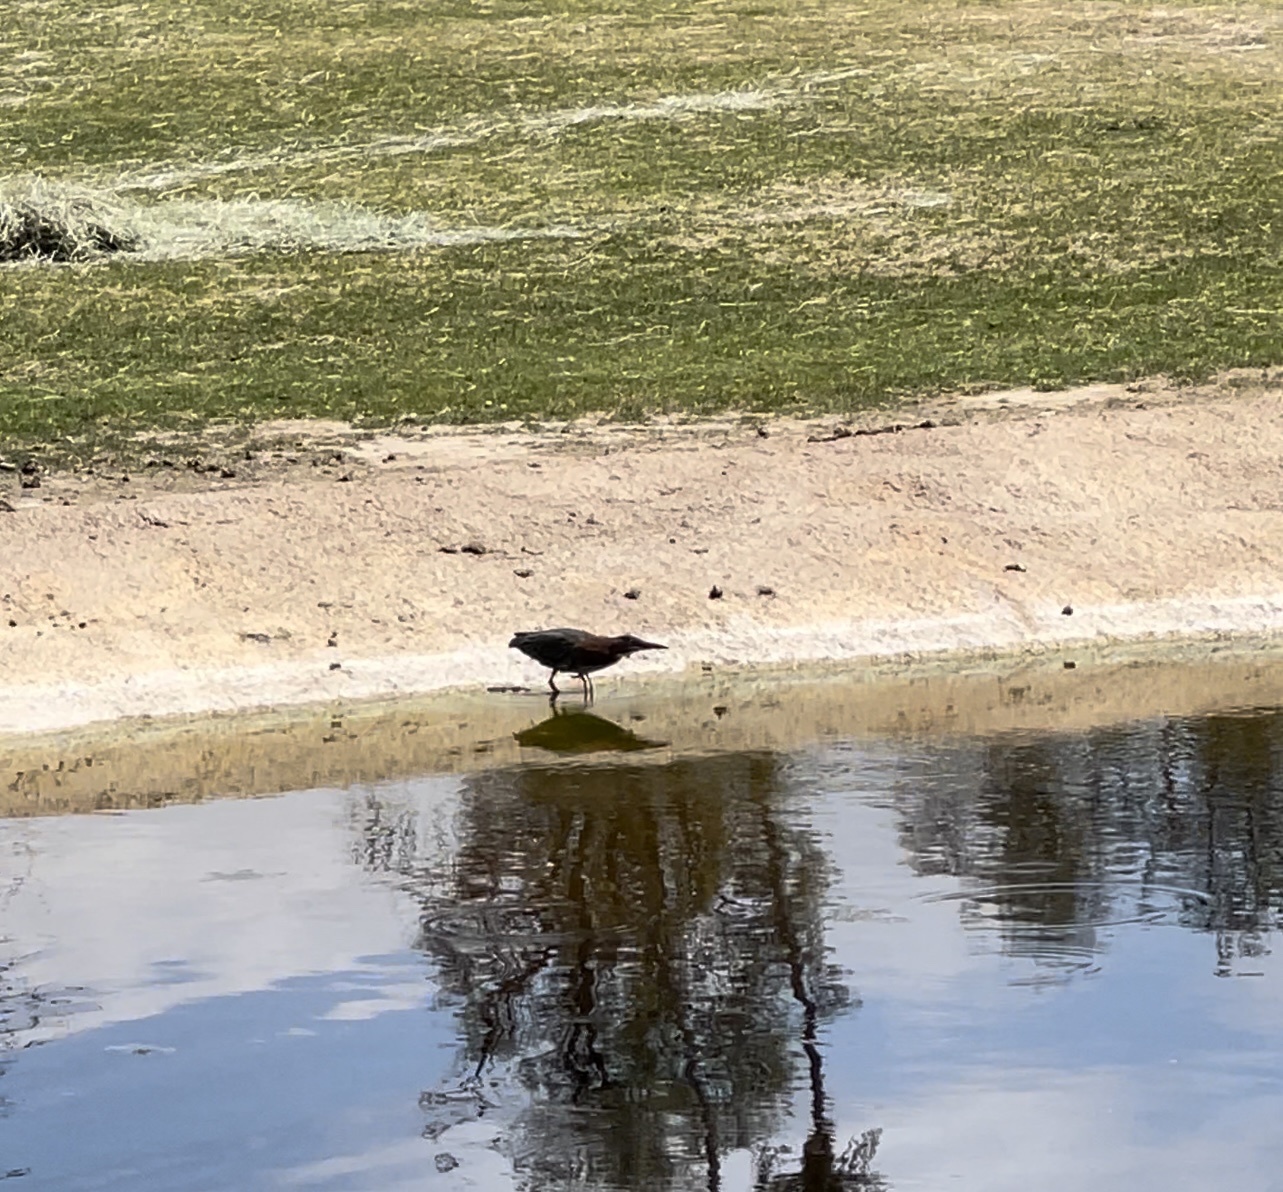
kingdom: Animalia
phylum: Chordata
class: Aves
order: Pelecaniformes
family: Ardeidae
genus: Butorides
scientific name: Butorides virescens
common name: Green heron
